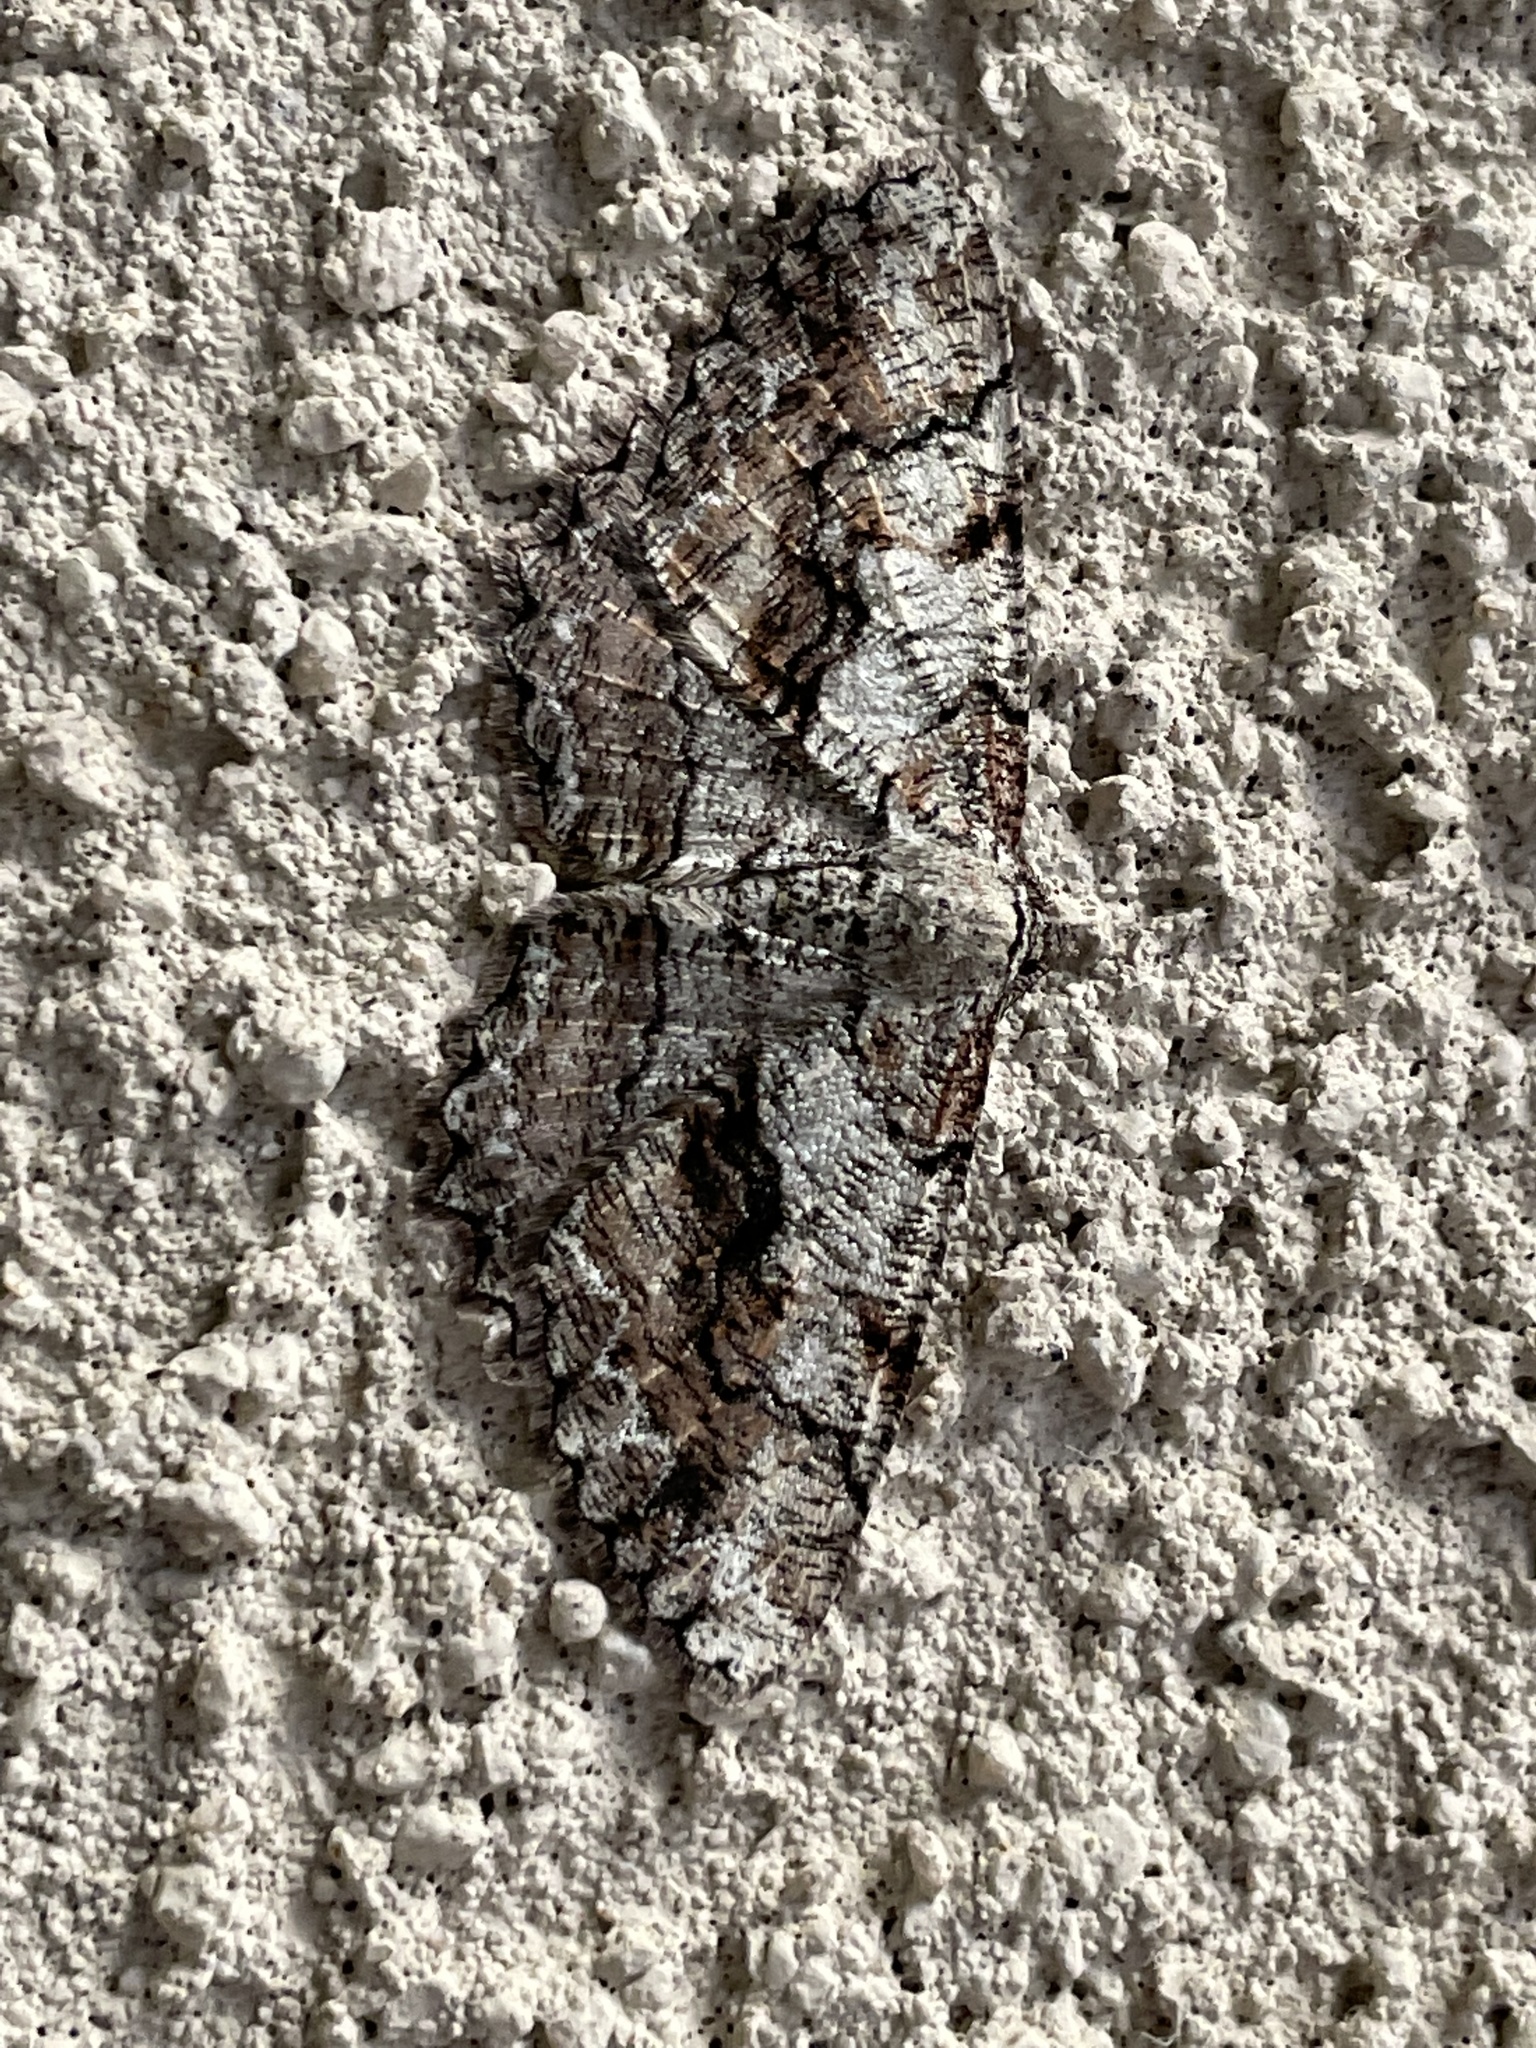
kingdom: Animalia
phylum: Arthropoda
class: Insecta
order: Lepidoptera
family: Geometridae
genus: Cymatophora
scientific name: Cymatophora approximaria
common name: Giant gray moth
